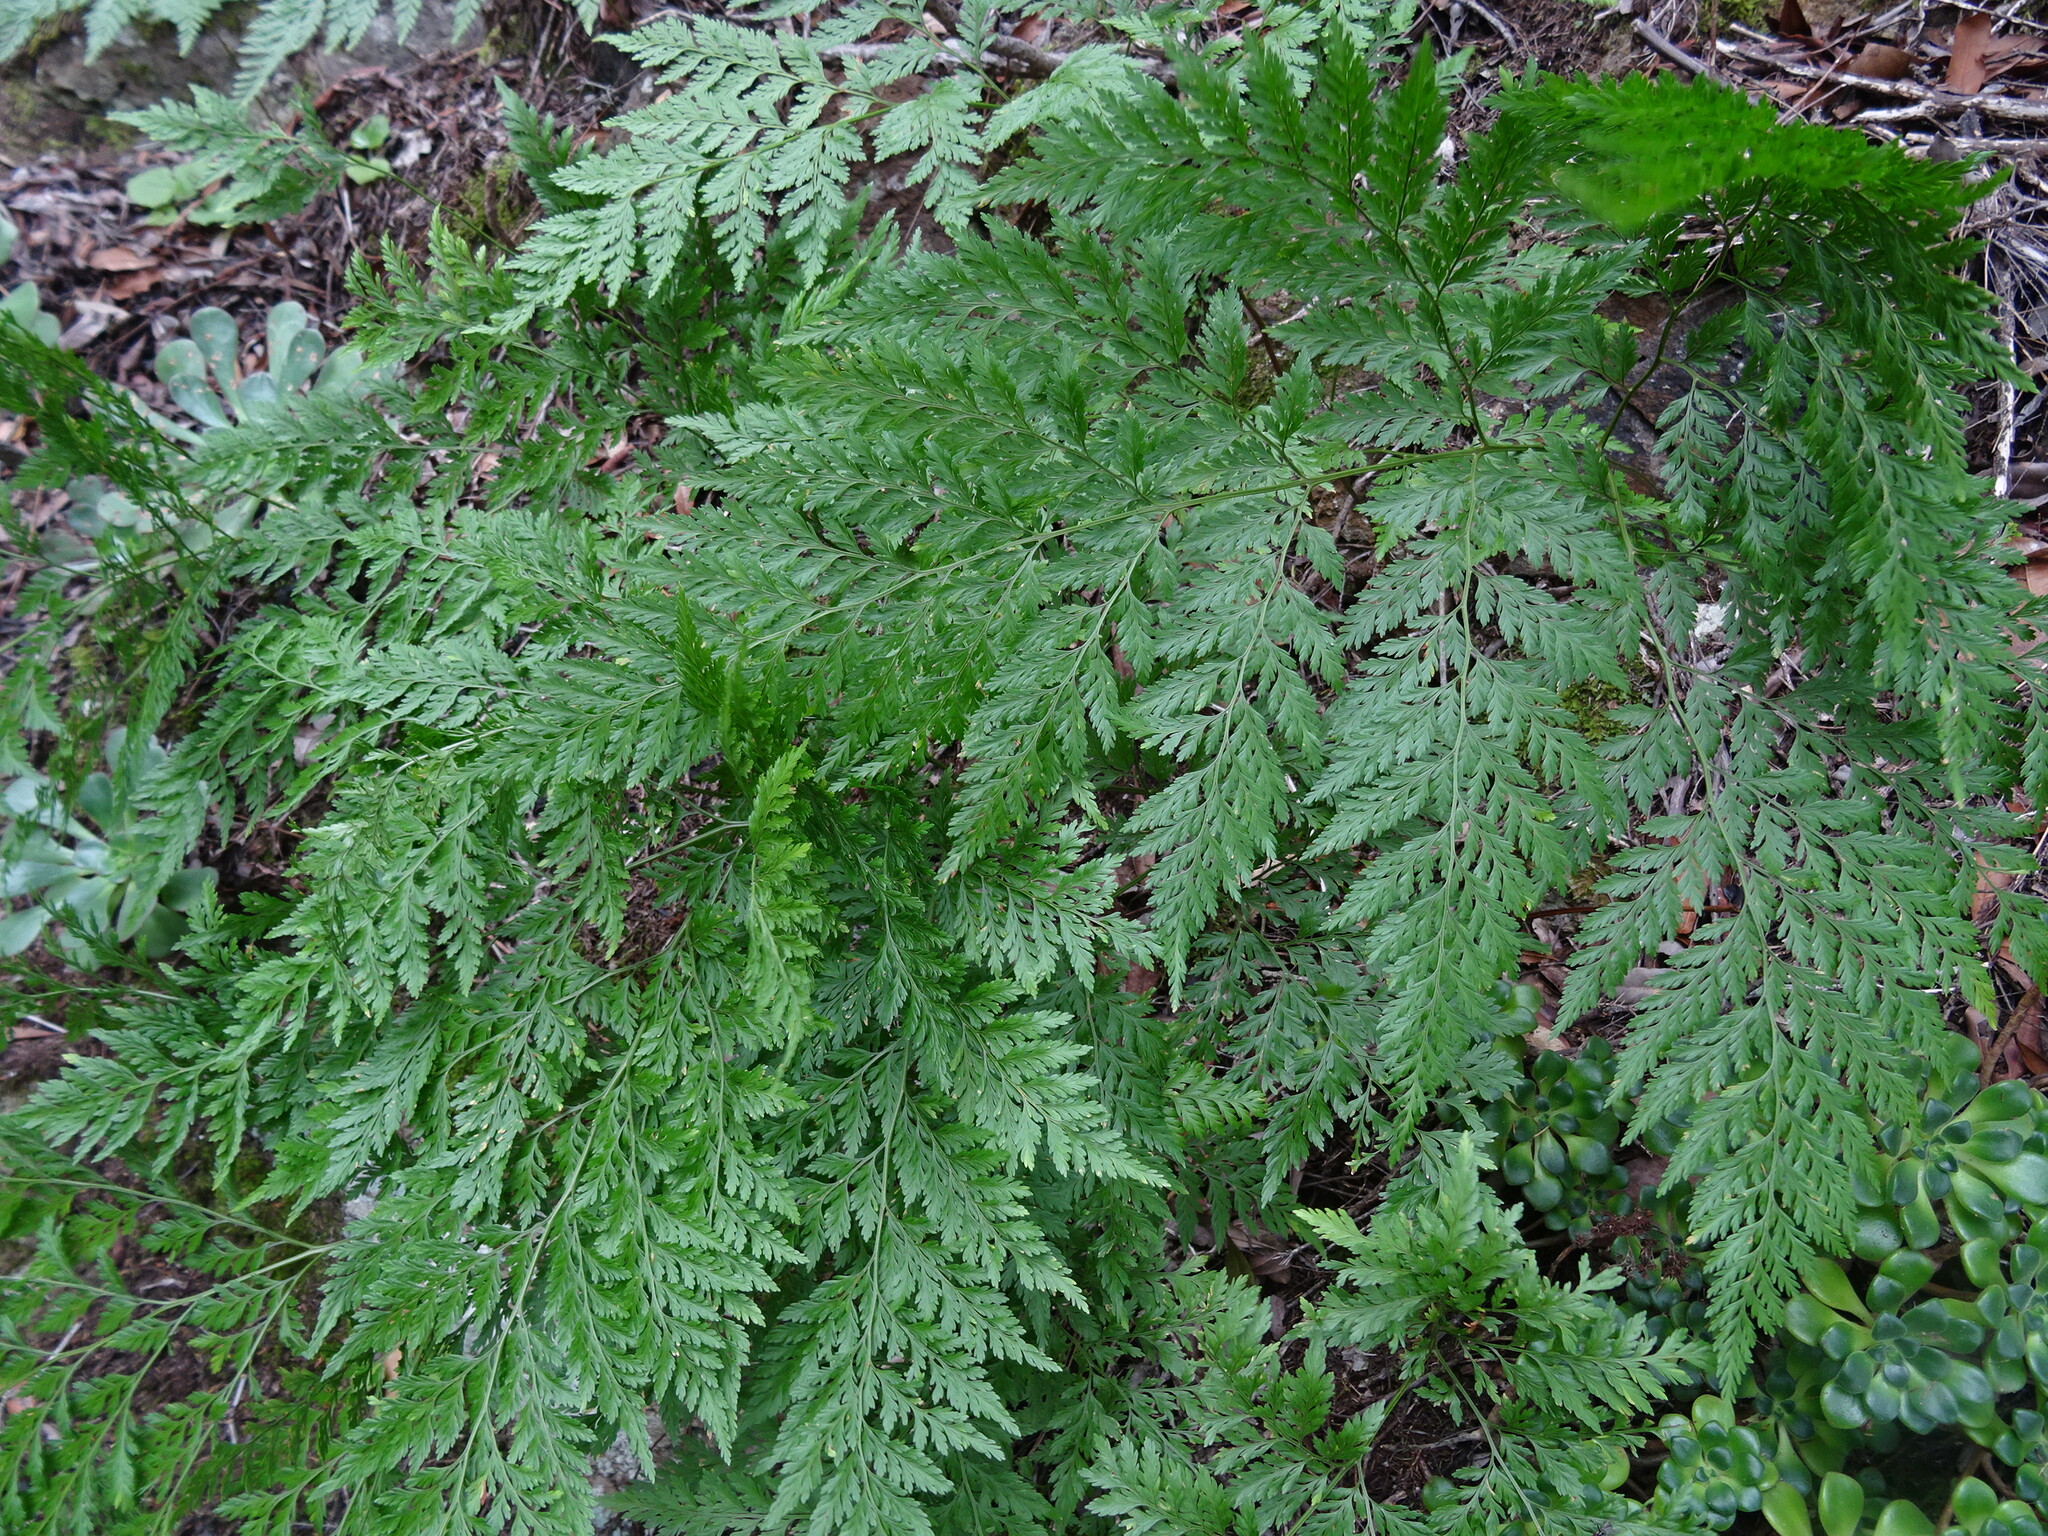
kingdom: Plantae
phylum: Tracheophyta
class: Polypodiopsida
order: Polypodiales
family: Davalliaceae
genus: Davallia
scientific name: Davallia canariensis
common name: Hare's-foot fern
